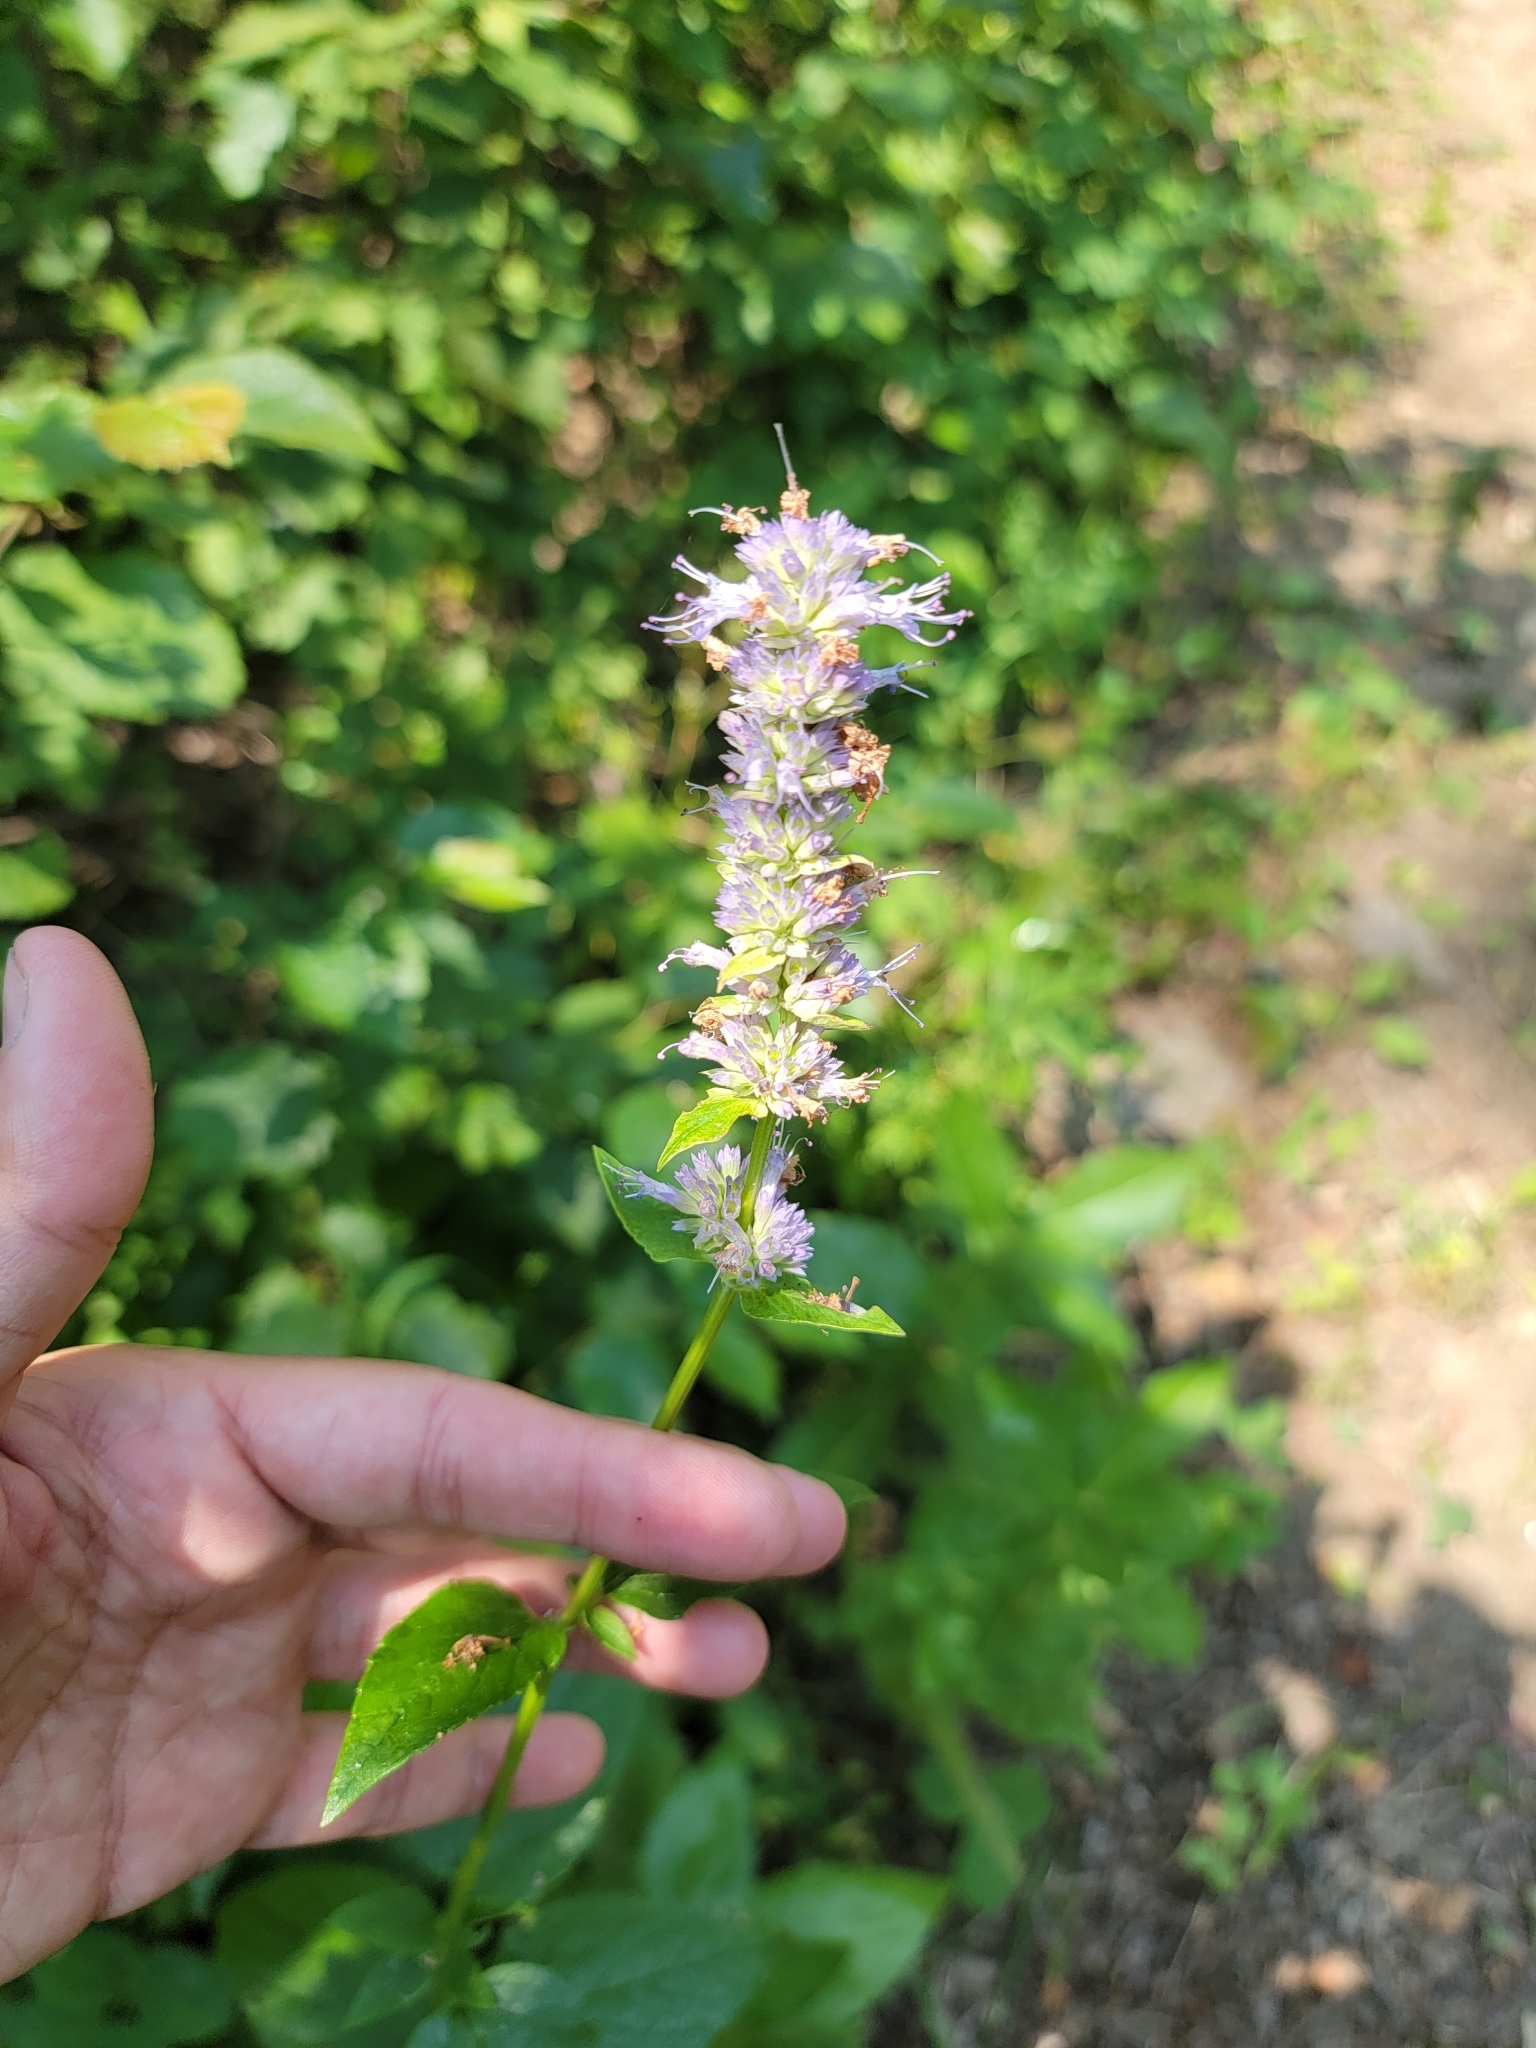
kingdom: Plantae
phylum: Tracheophyta
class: Magnoliopsida
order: Lamiales
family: Lamiaceae
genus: Agastache
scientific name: Agastache foeniculum
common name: Anise hyssop
